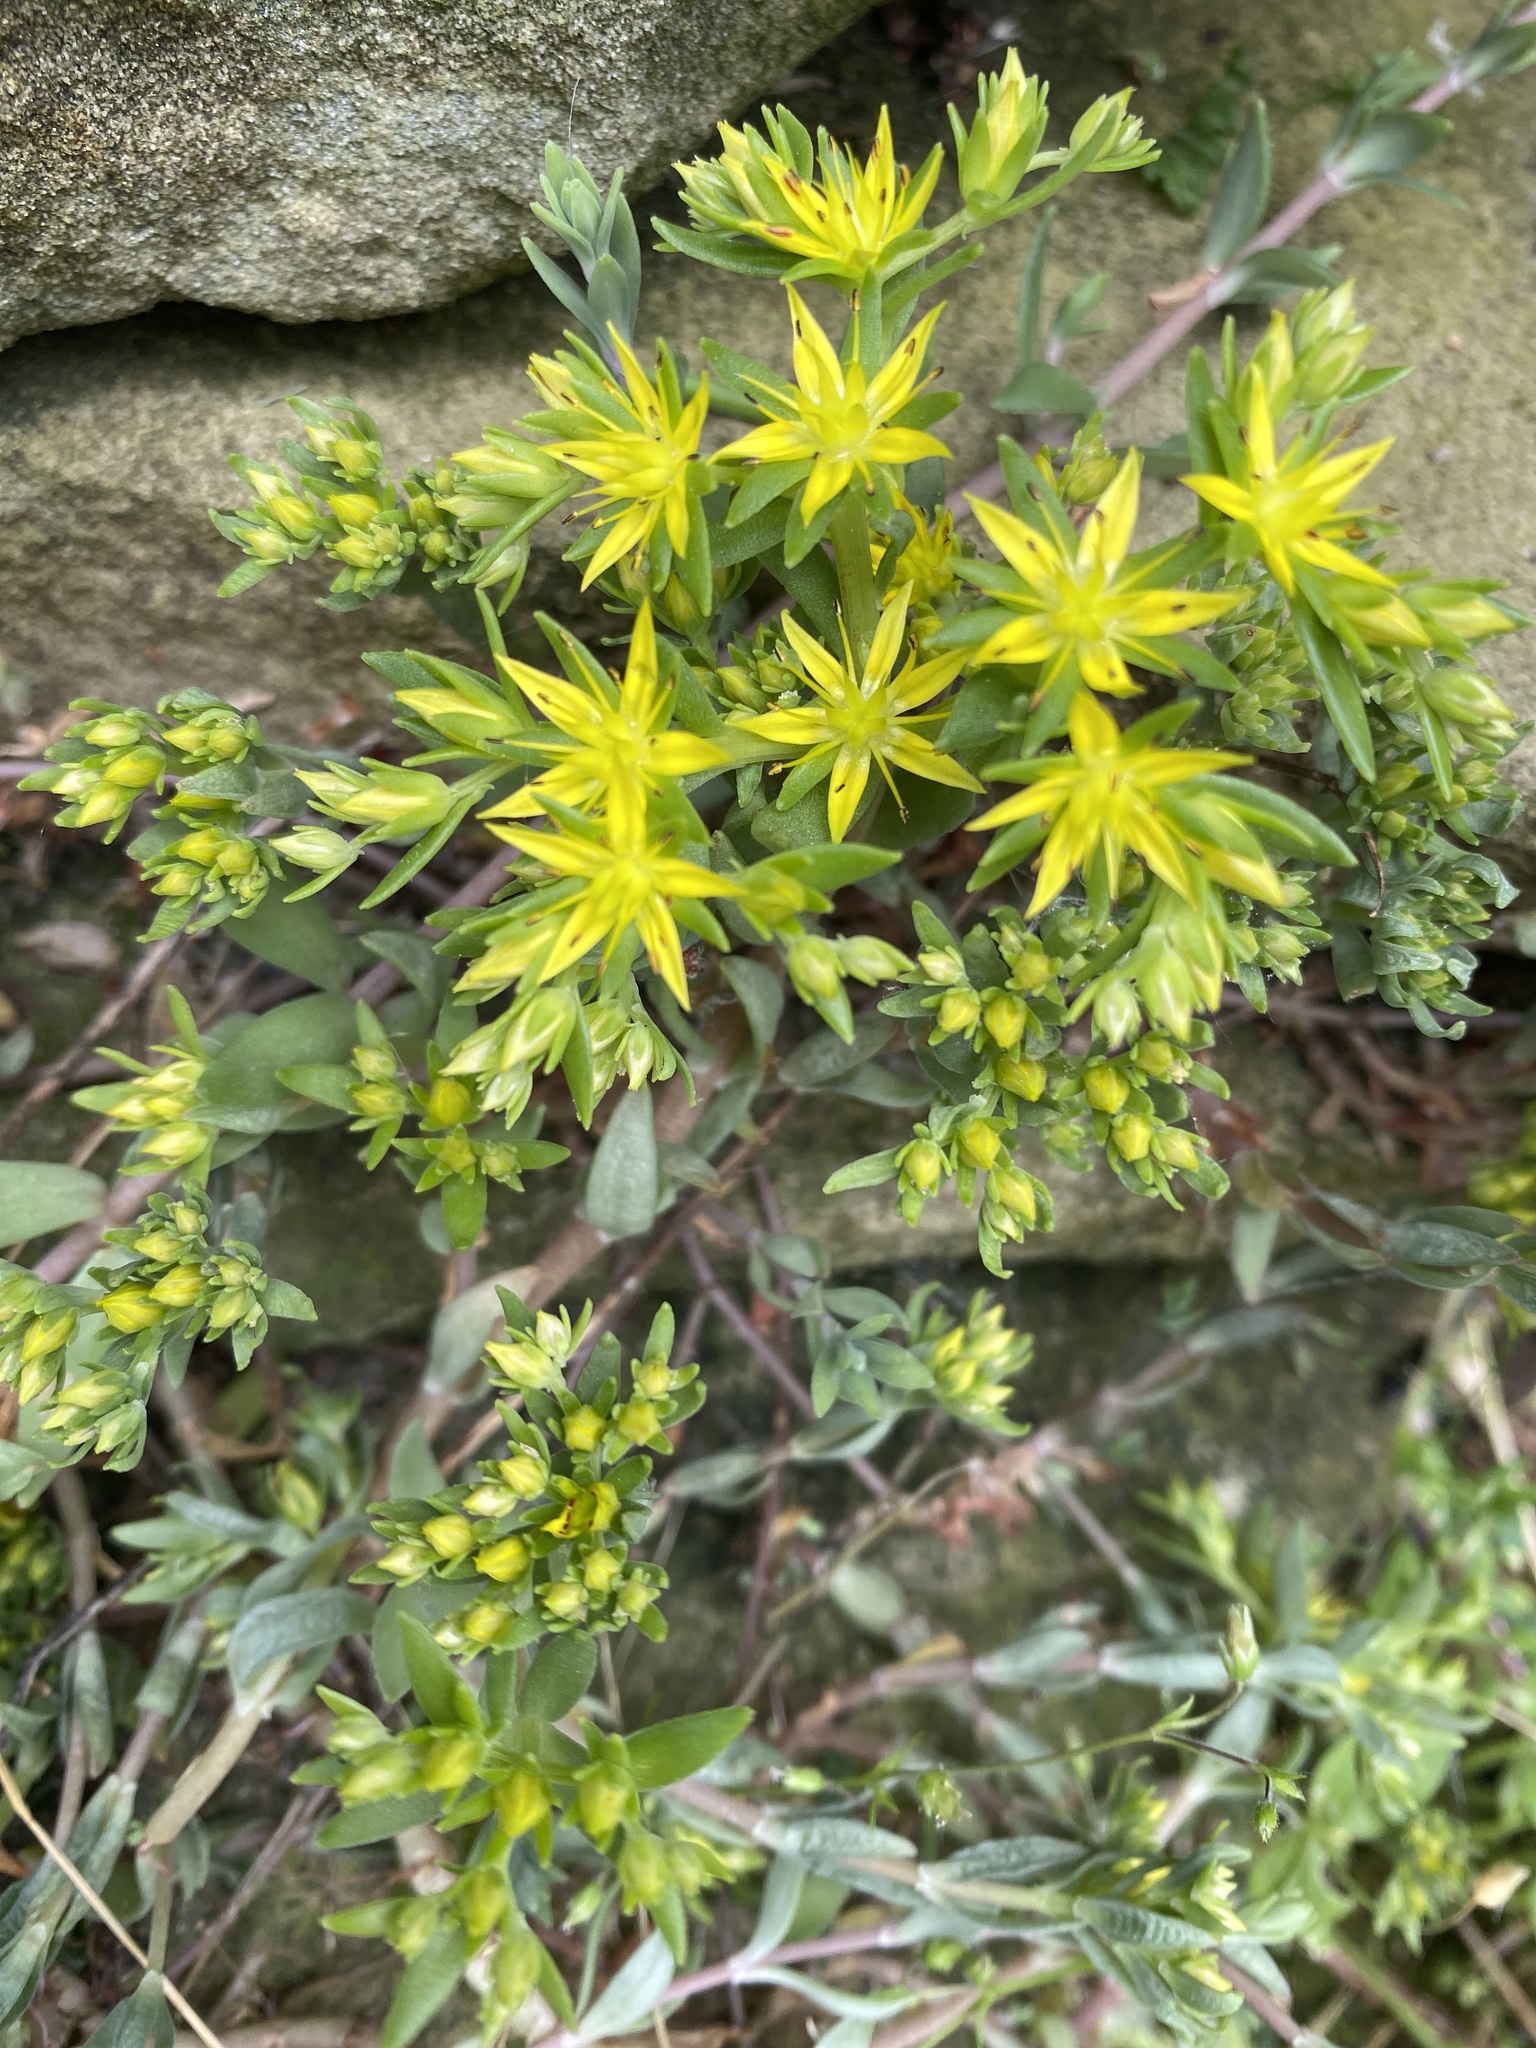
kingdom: Plantae
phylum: Tracheophyta
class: Magnoliopsida
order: Saxifragales
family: Crassulaceae
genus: Sedum
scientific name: Sedum sarmentosum
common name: Stringy stonecrop
